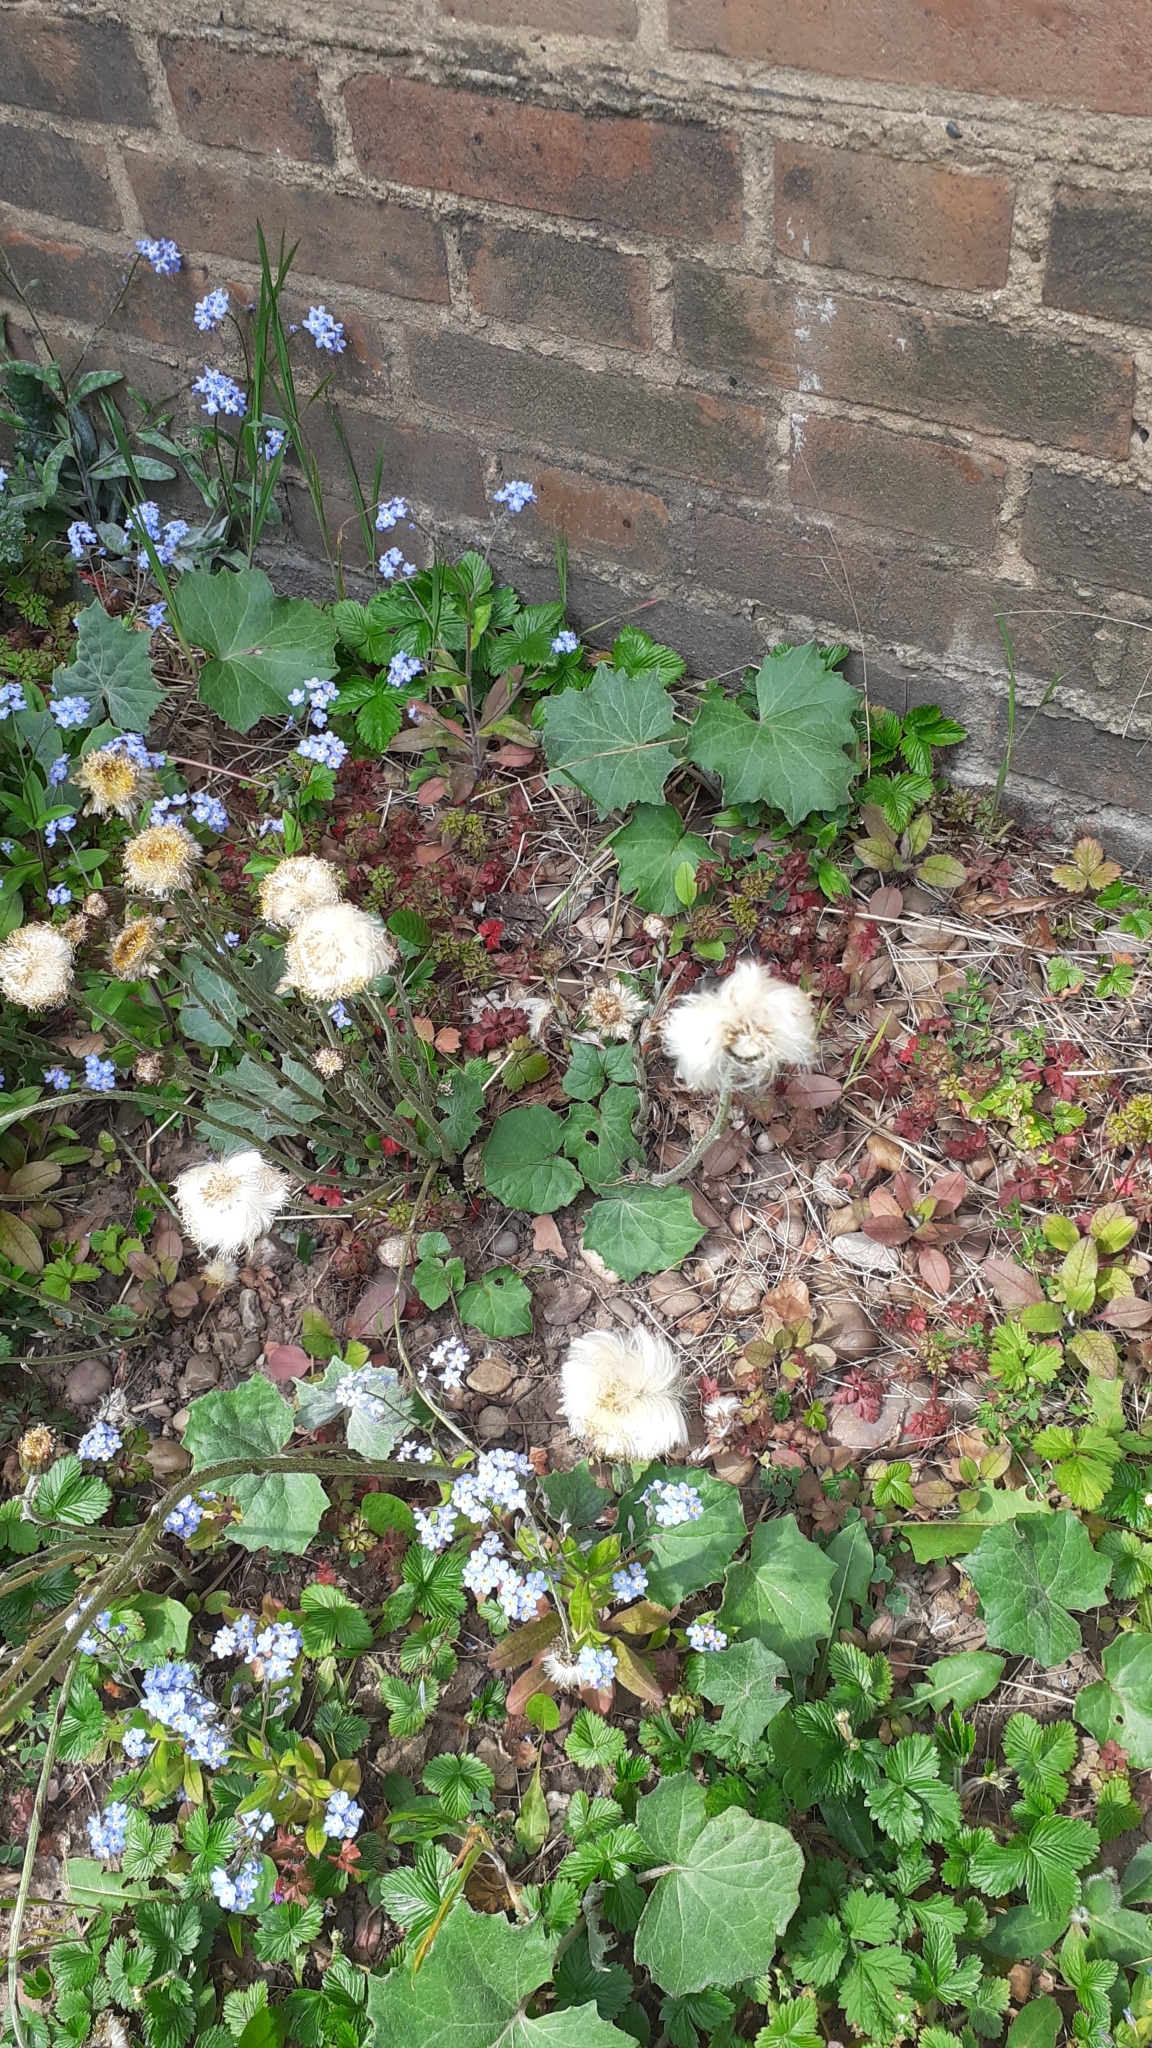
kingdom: Plantae
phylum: Tracheophyta
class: Magnoliopsida
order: Asterales
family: Asteraceae
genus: Tussilago
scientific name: Tussilago farfara
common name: Coltsfoot
